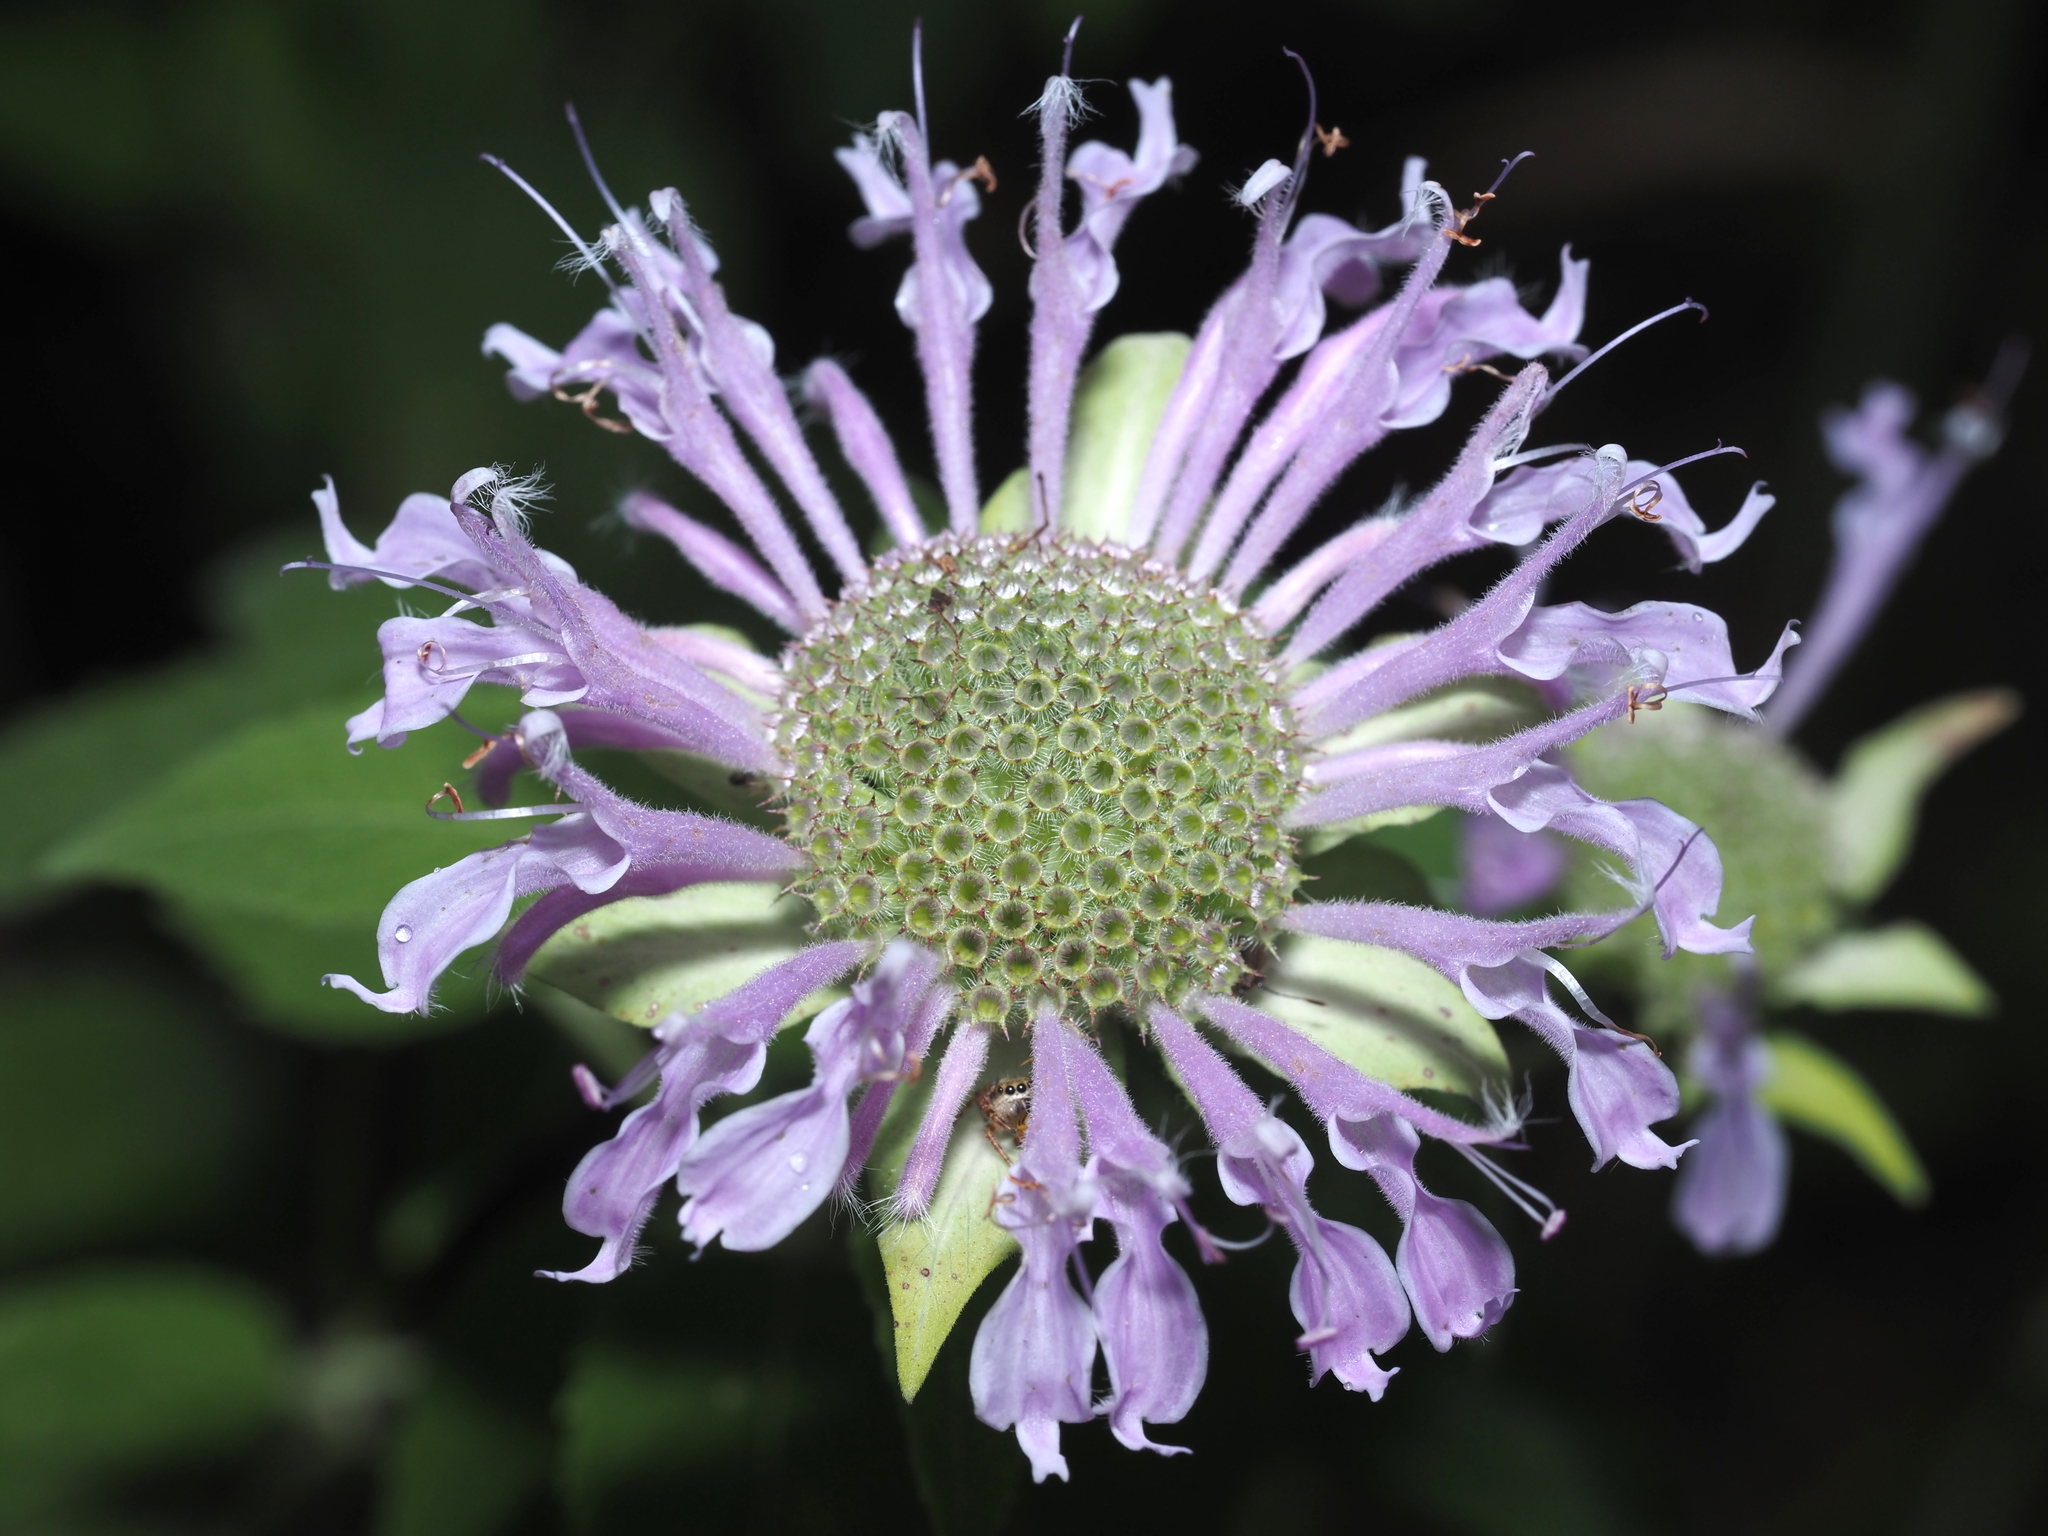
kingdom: Plantae
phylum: Tracheophyta
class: Magnoliopsida
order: Lamiales
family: Lamiaceae
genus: Monarda
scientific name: Monarda fistulosa
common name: Purple beebalm
